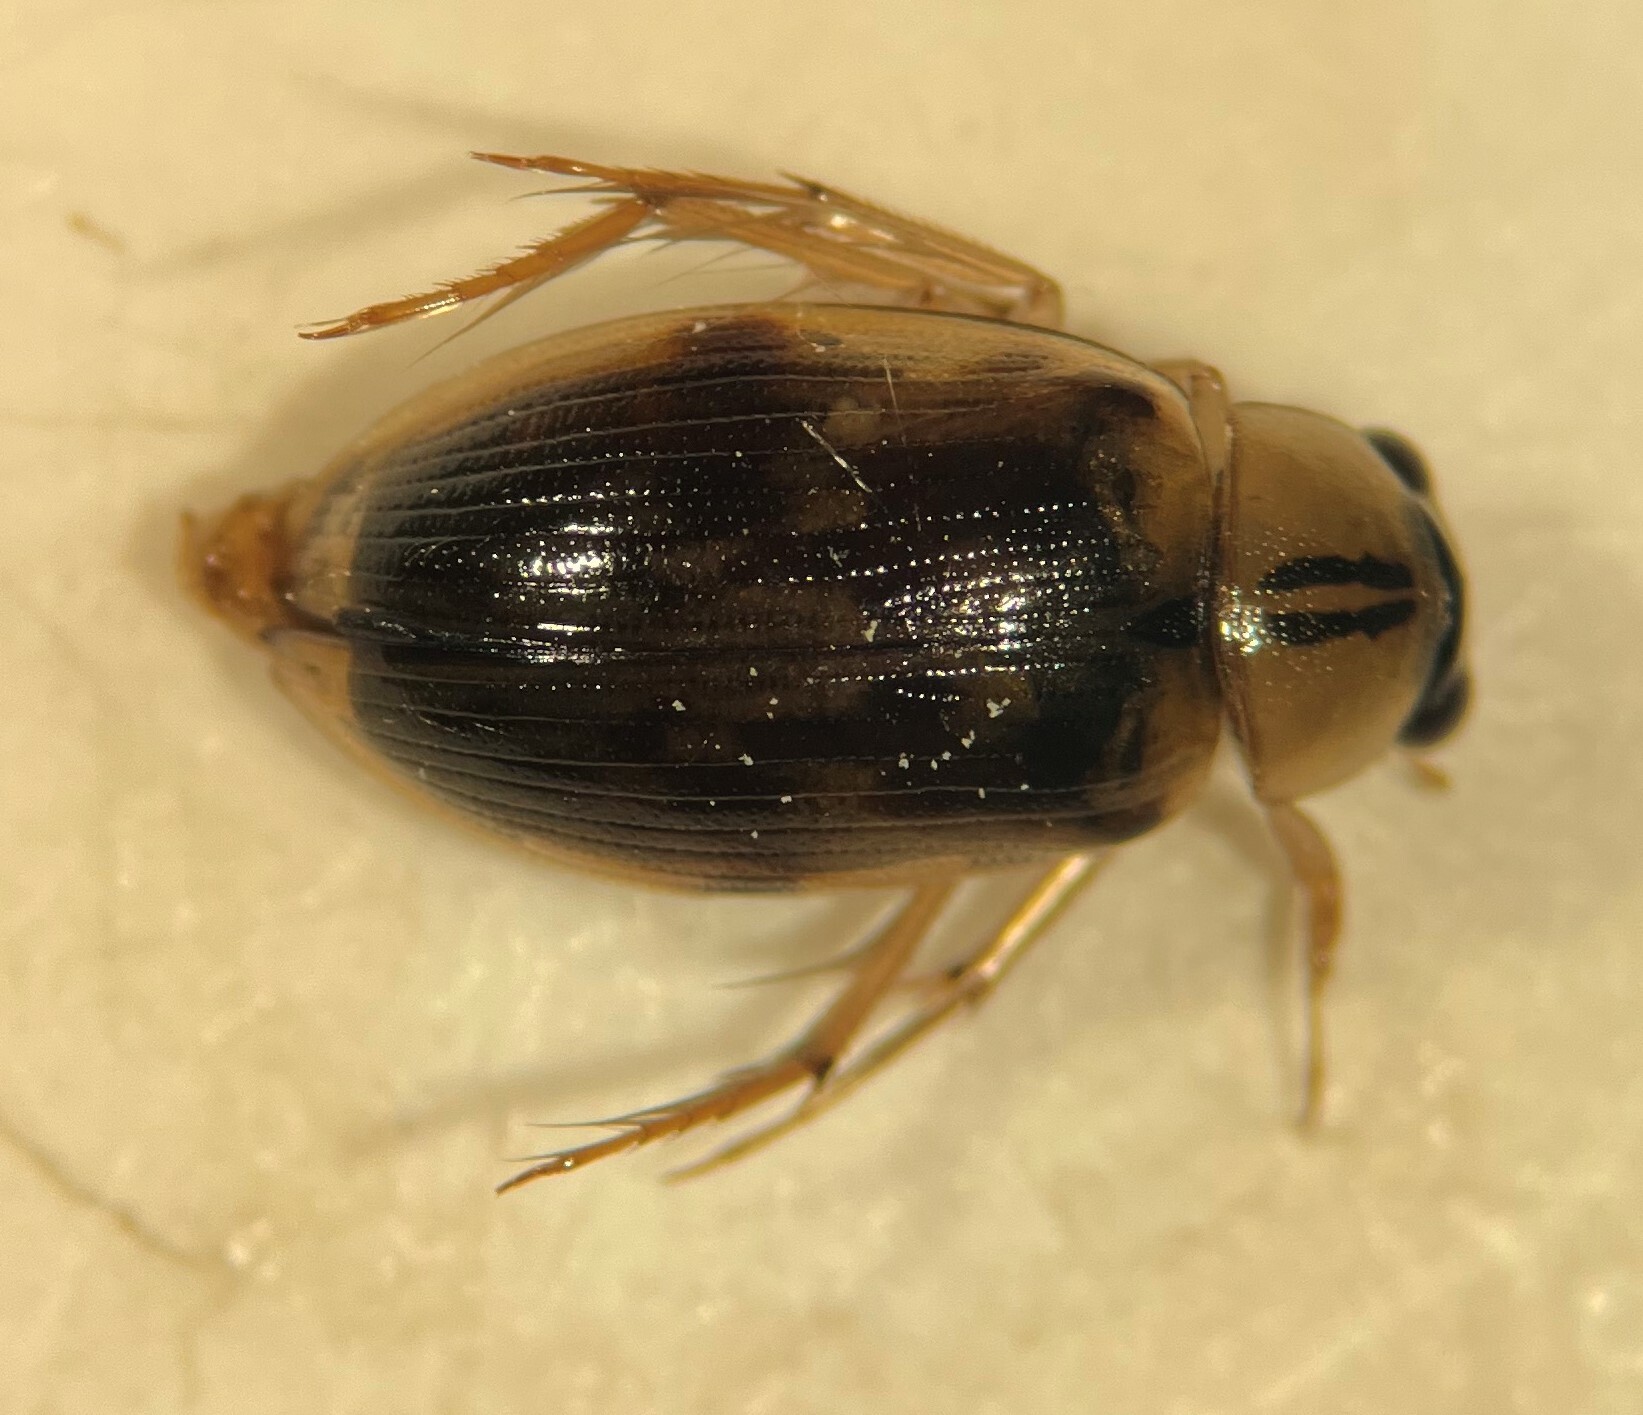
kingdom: Animalia
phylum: Arthropoda
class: Insecta
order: Coleoptera
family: Hydrophilidae
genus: Berosus
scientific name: Berosus miles
